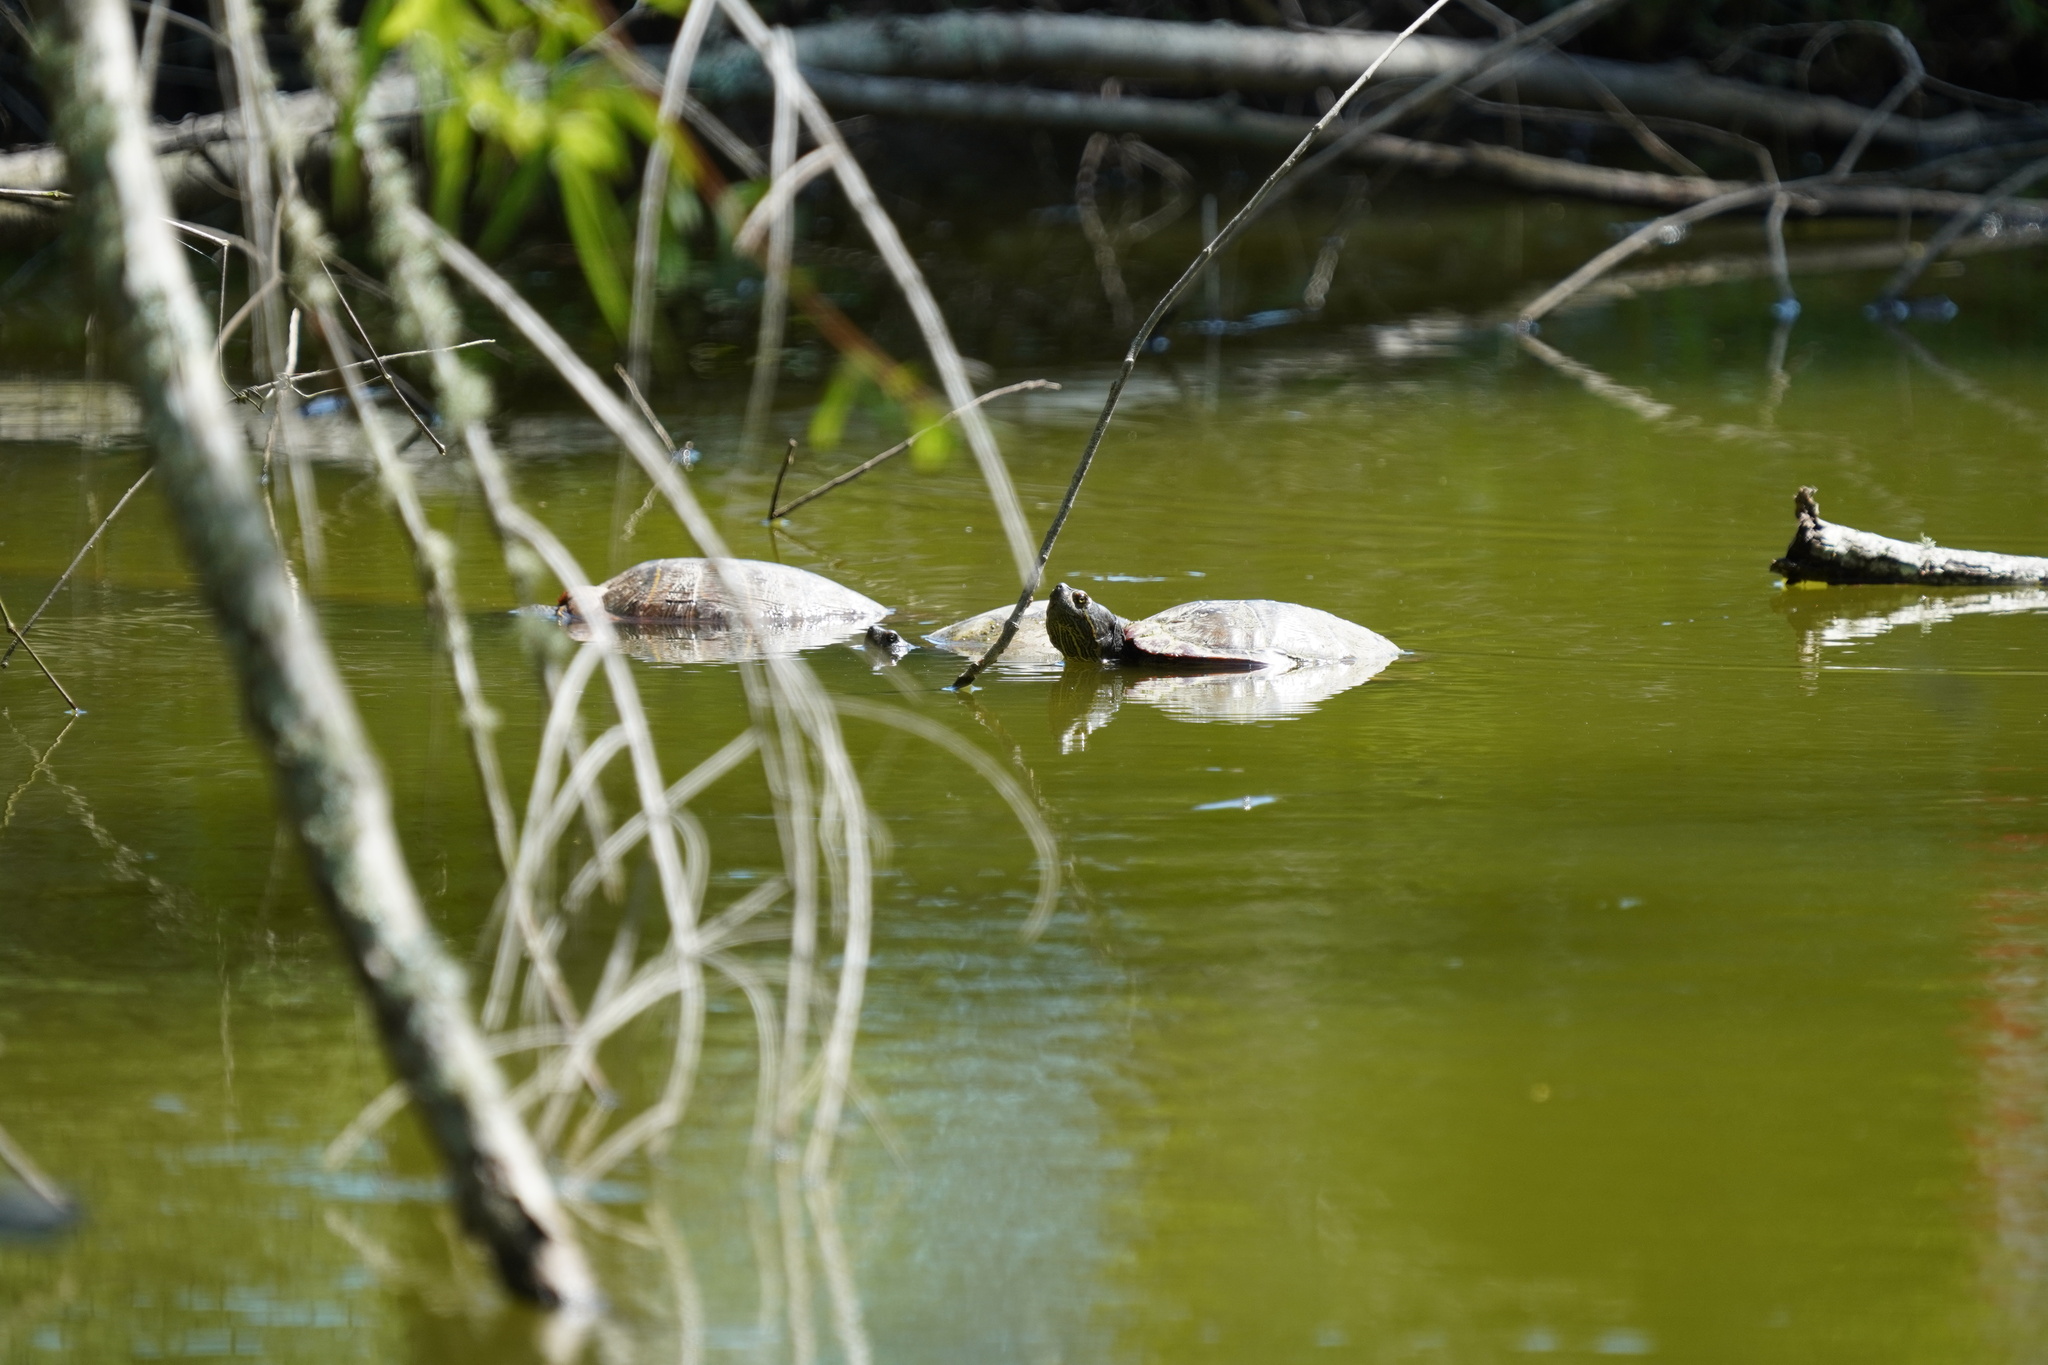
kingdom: Animalia
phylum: Chordata
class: Testudines
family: Emydidae
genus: Trachemys
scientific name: Trachemys scripta
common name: Slider
